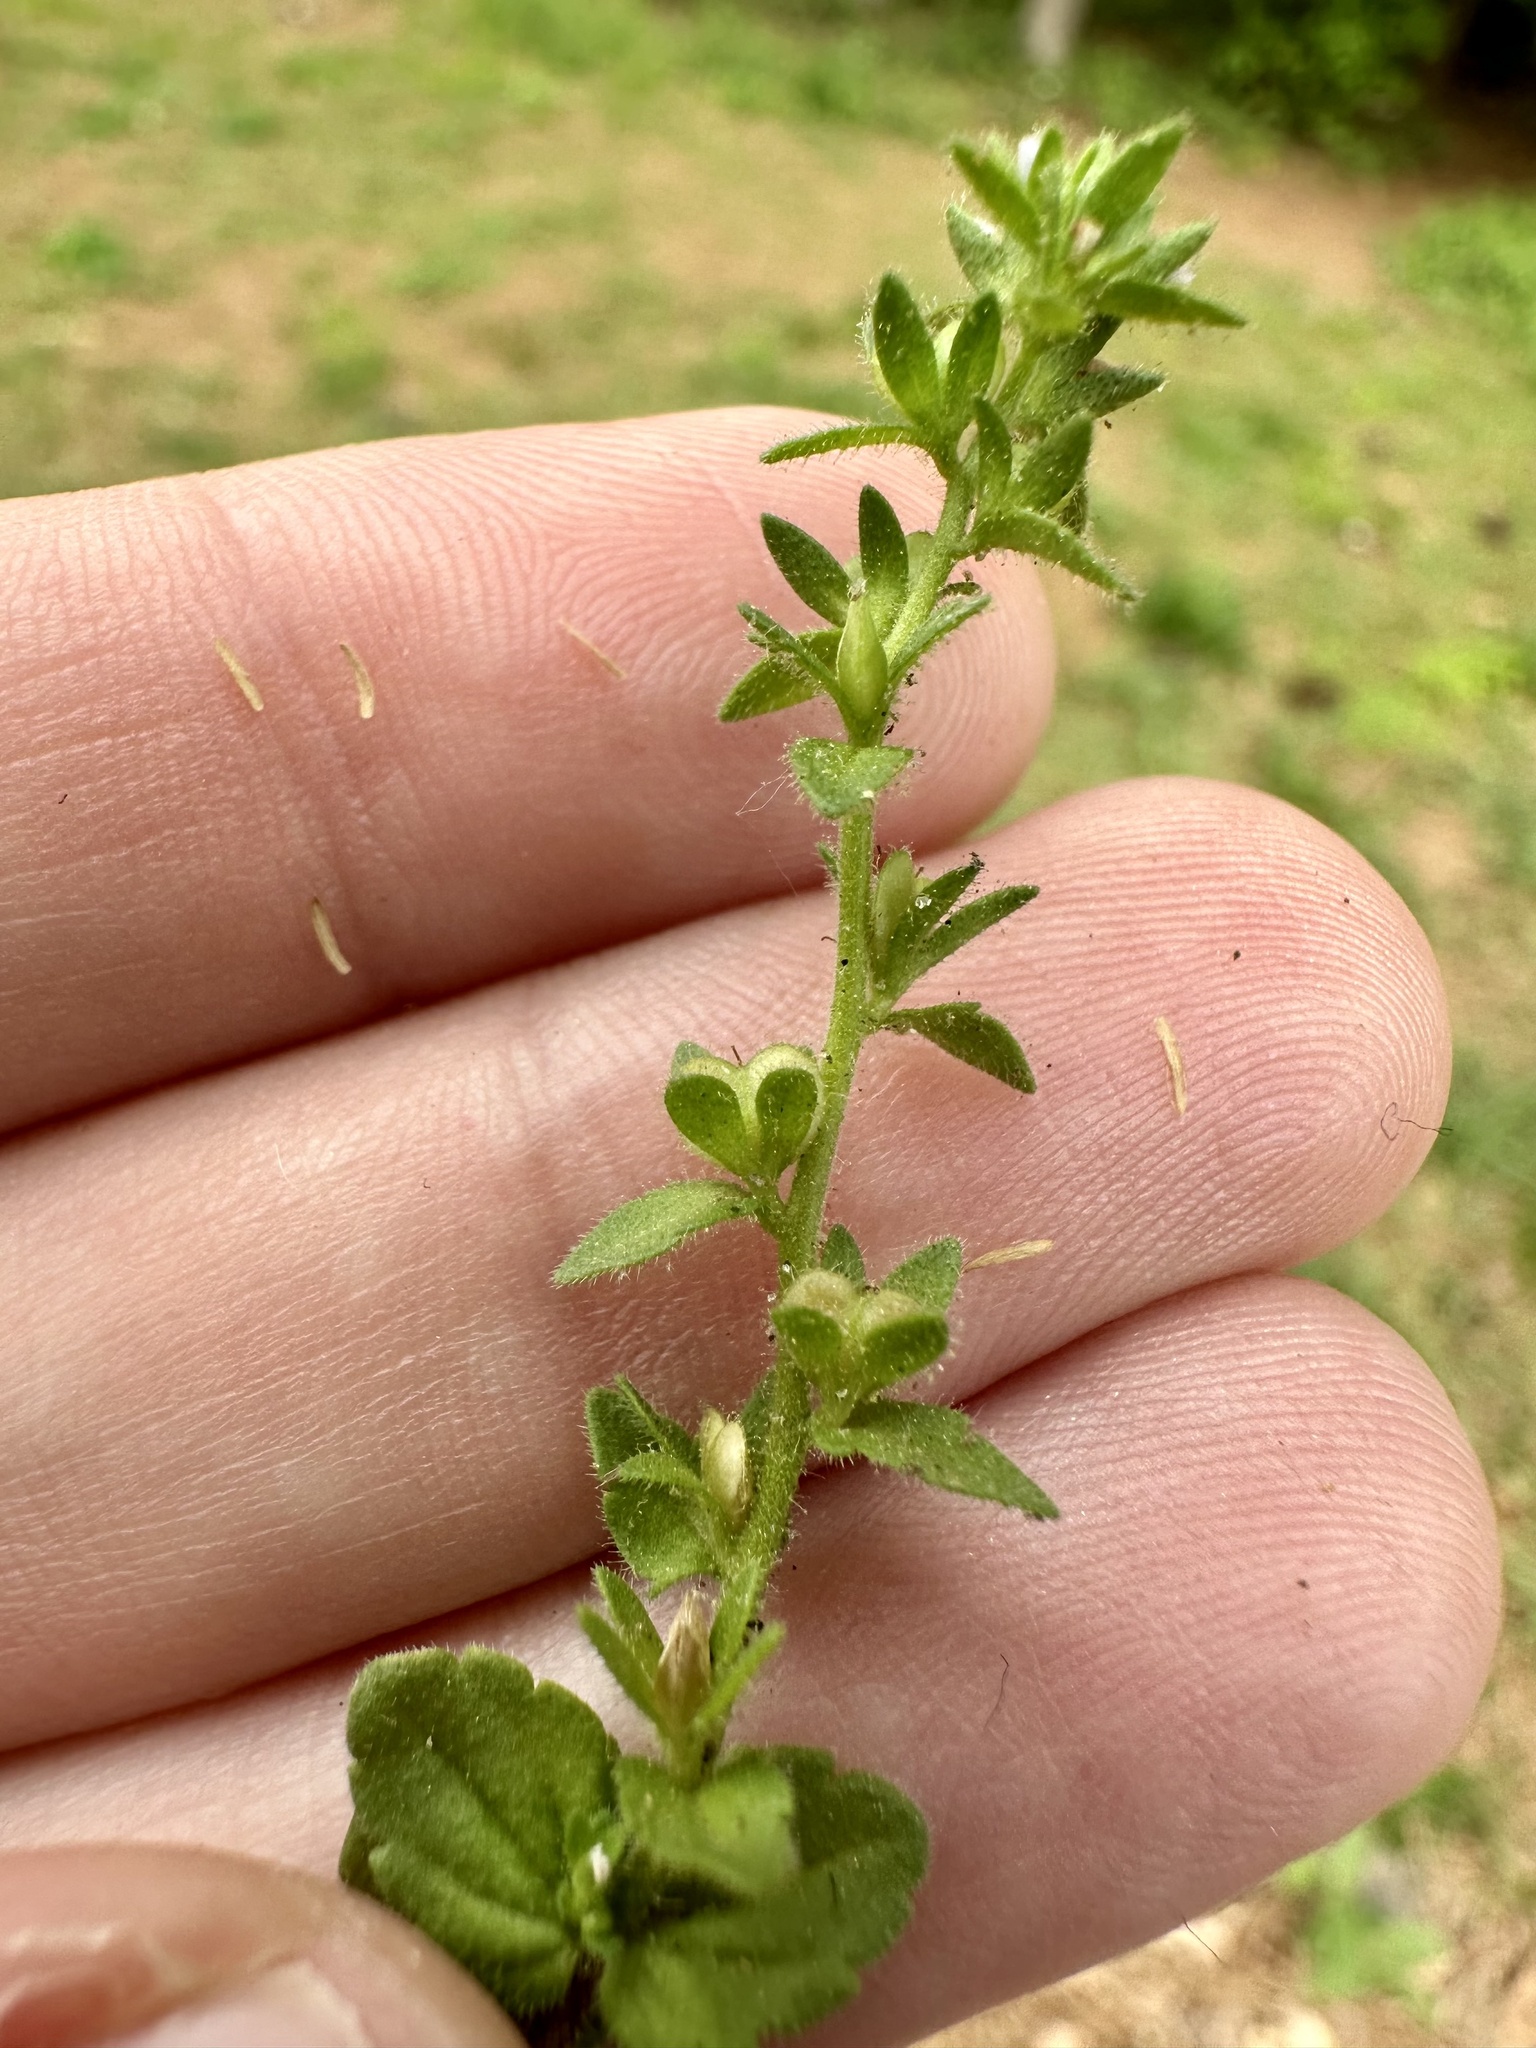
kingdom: Plantae
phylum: Tracheophyta
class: Magnoliopsida
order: Lamiales
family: Plantaginaceae
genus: Veronica
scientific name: Veronica arvensis
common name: Corn speedwell
